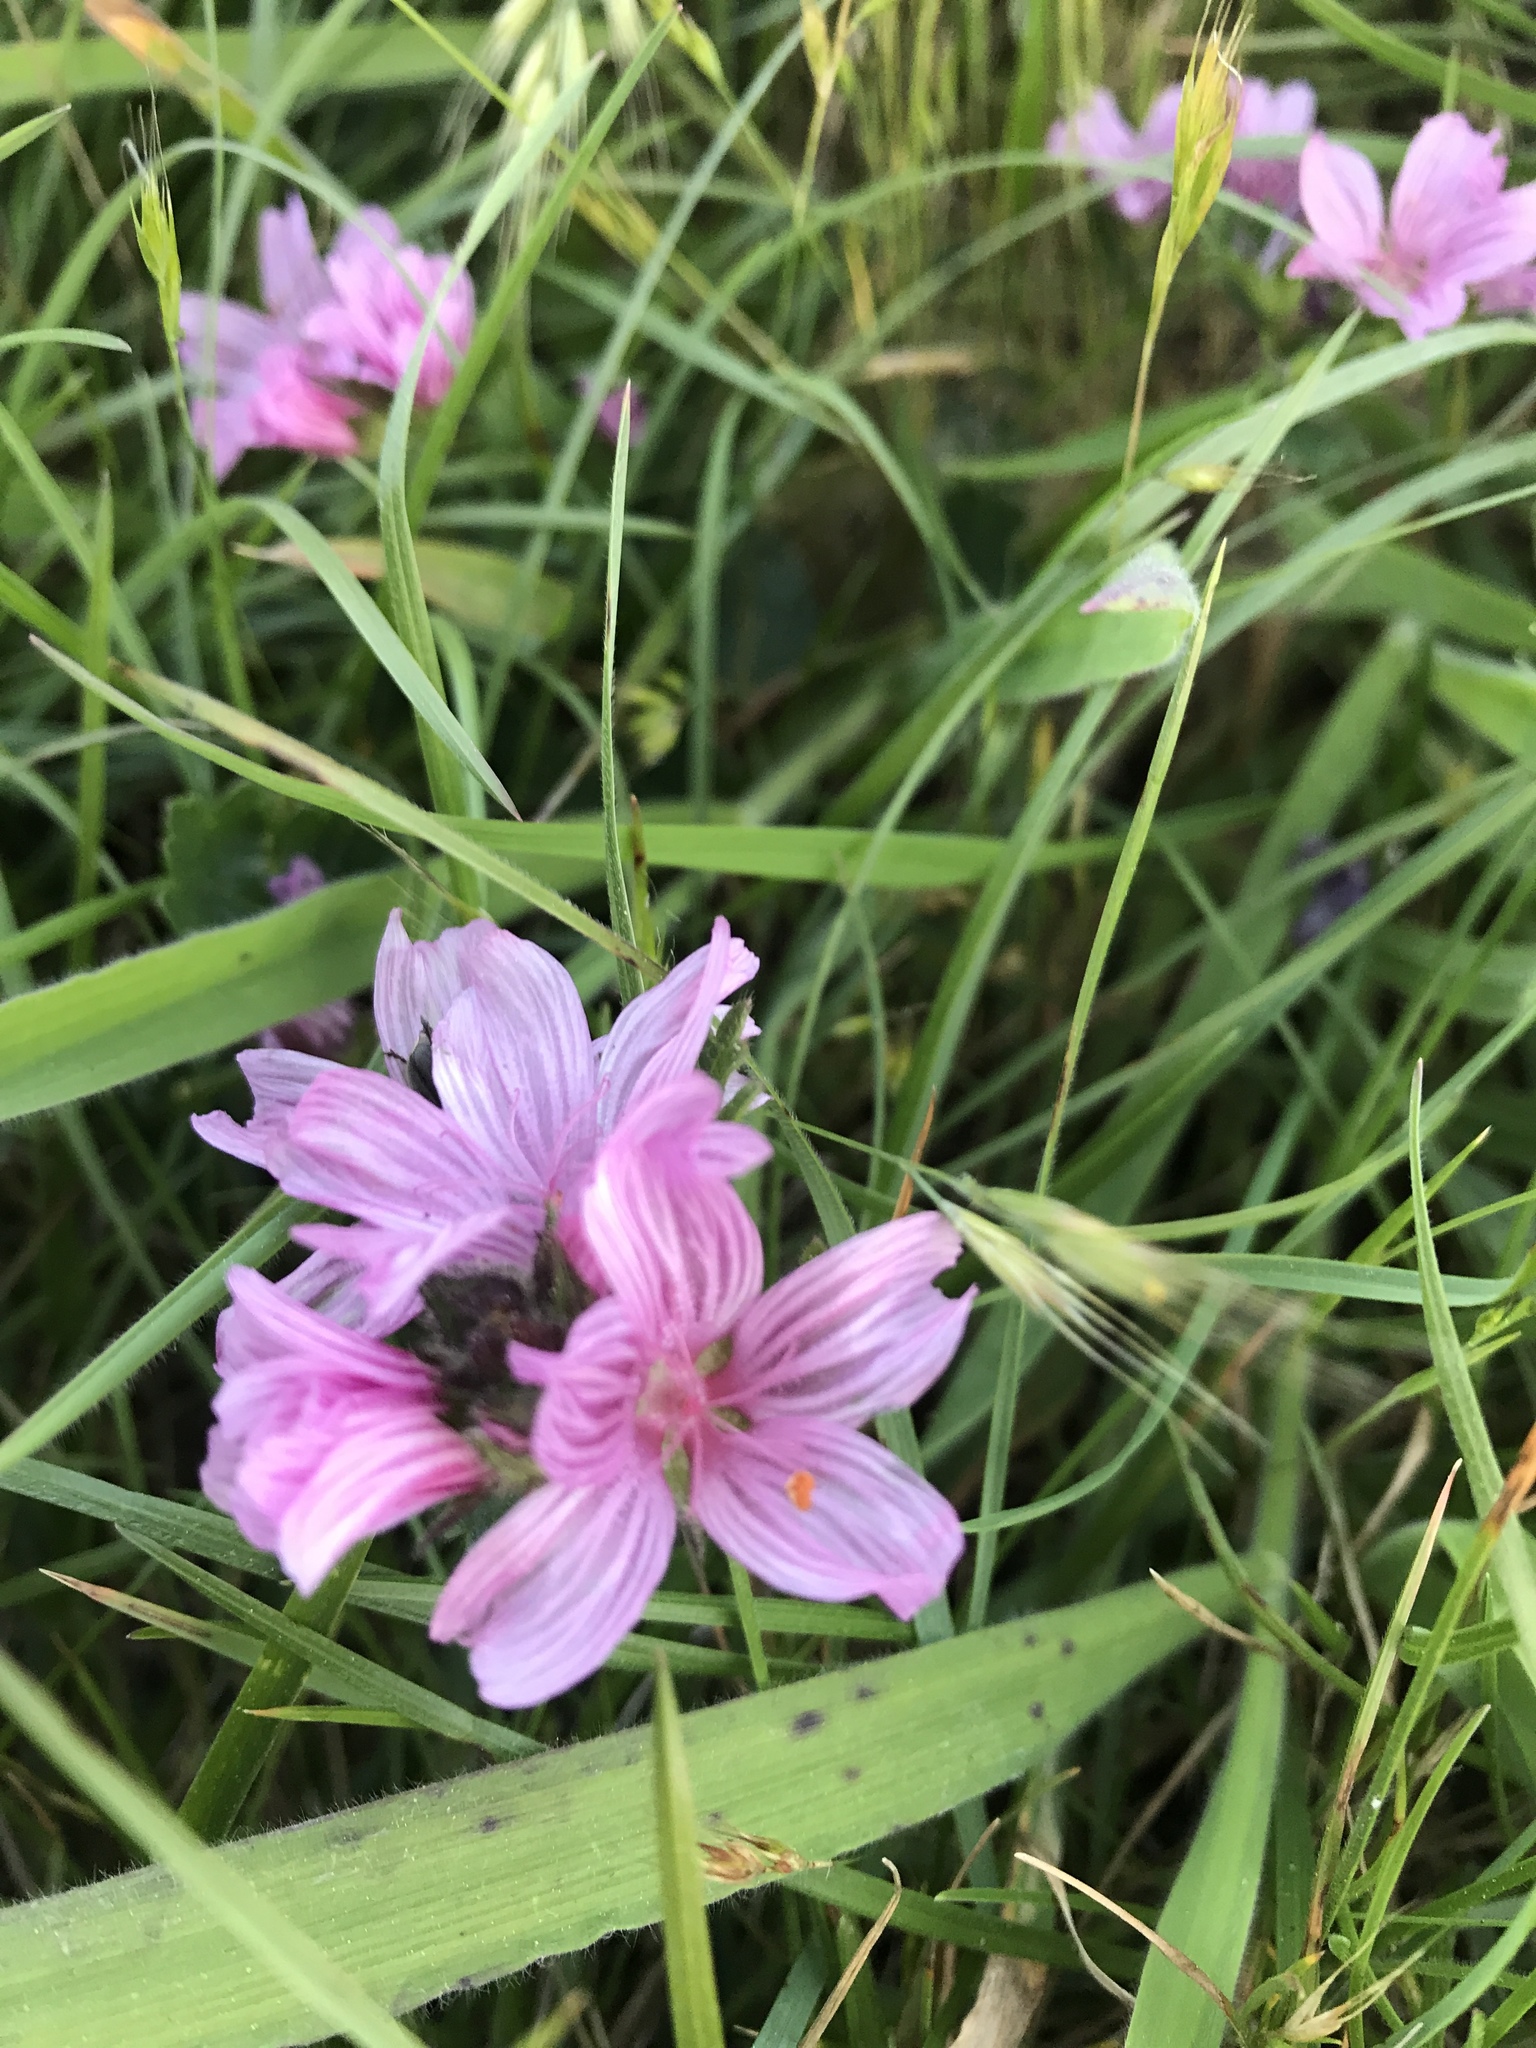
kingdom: Plantae
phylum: Tracheophyta
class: Magnoliopsida
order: Malvales
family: Malvaceae
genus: Sidalcea
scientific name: Sidalcea malviflora
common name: Greek mallow
